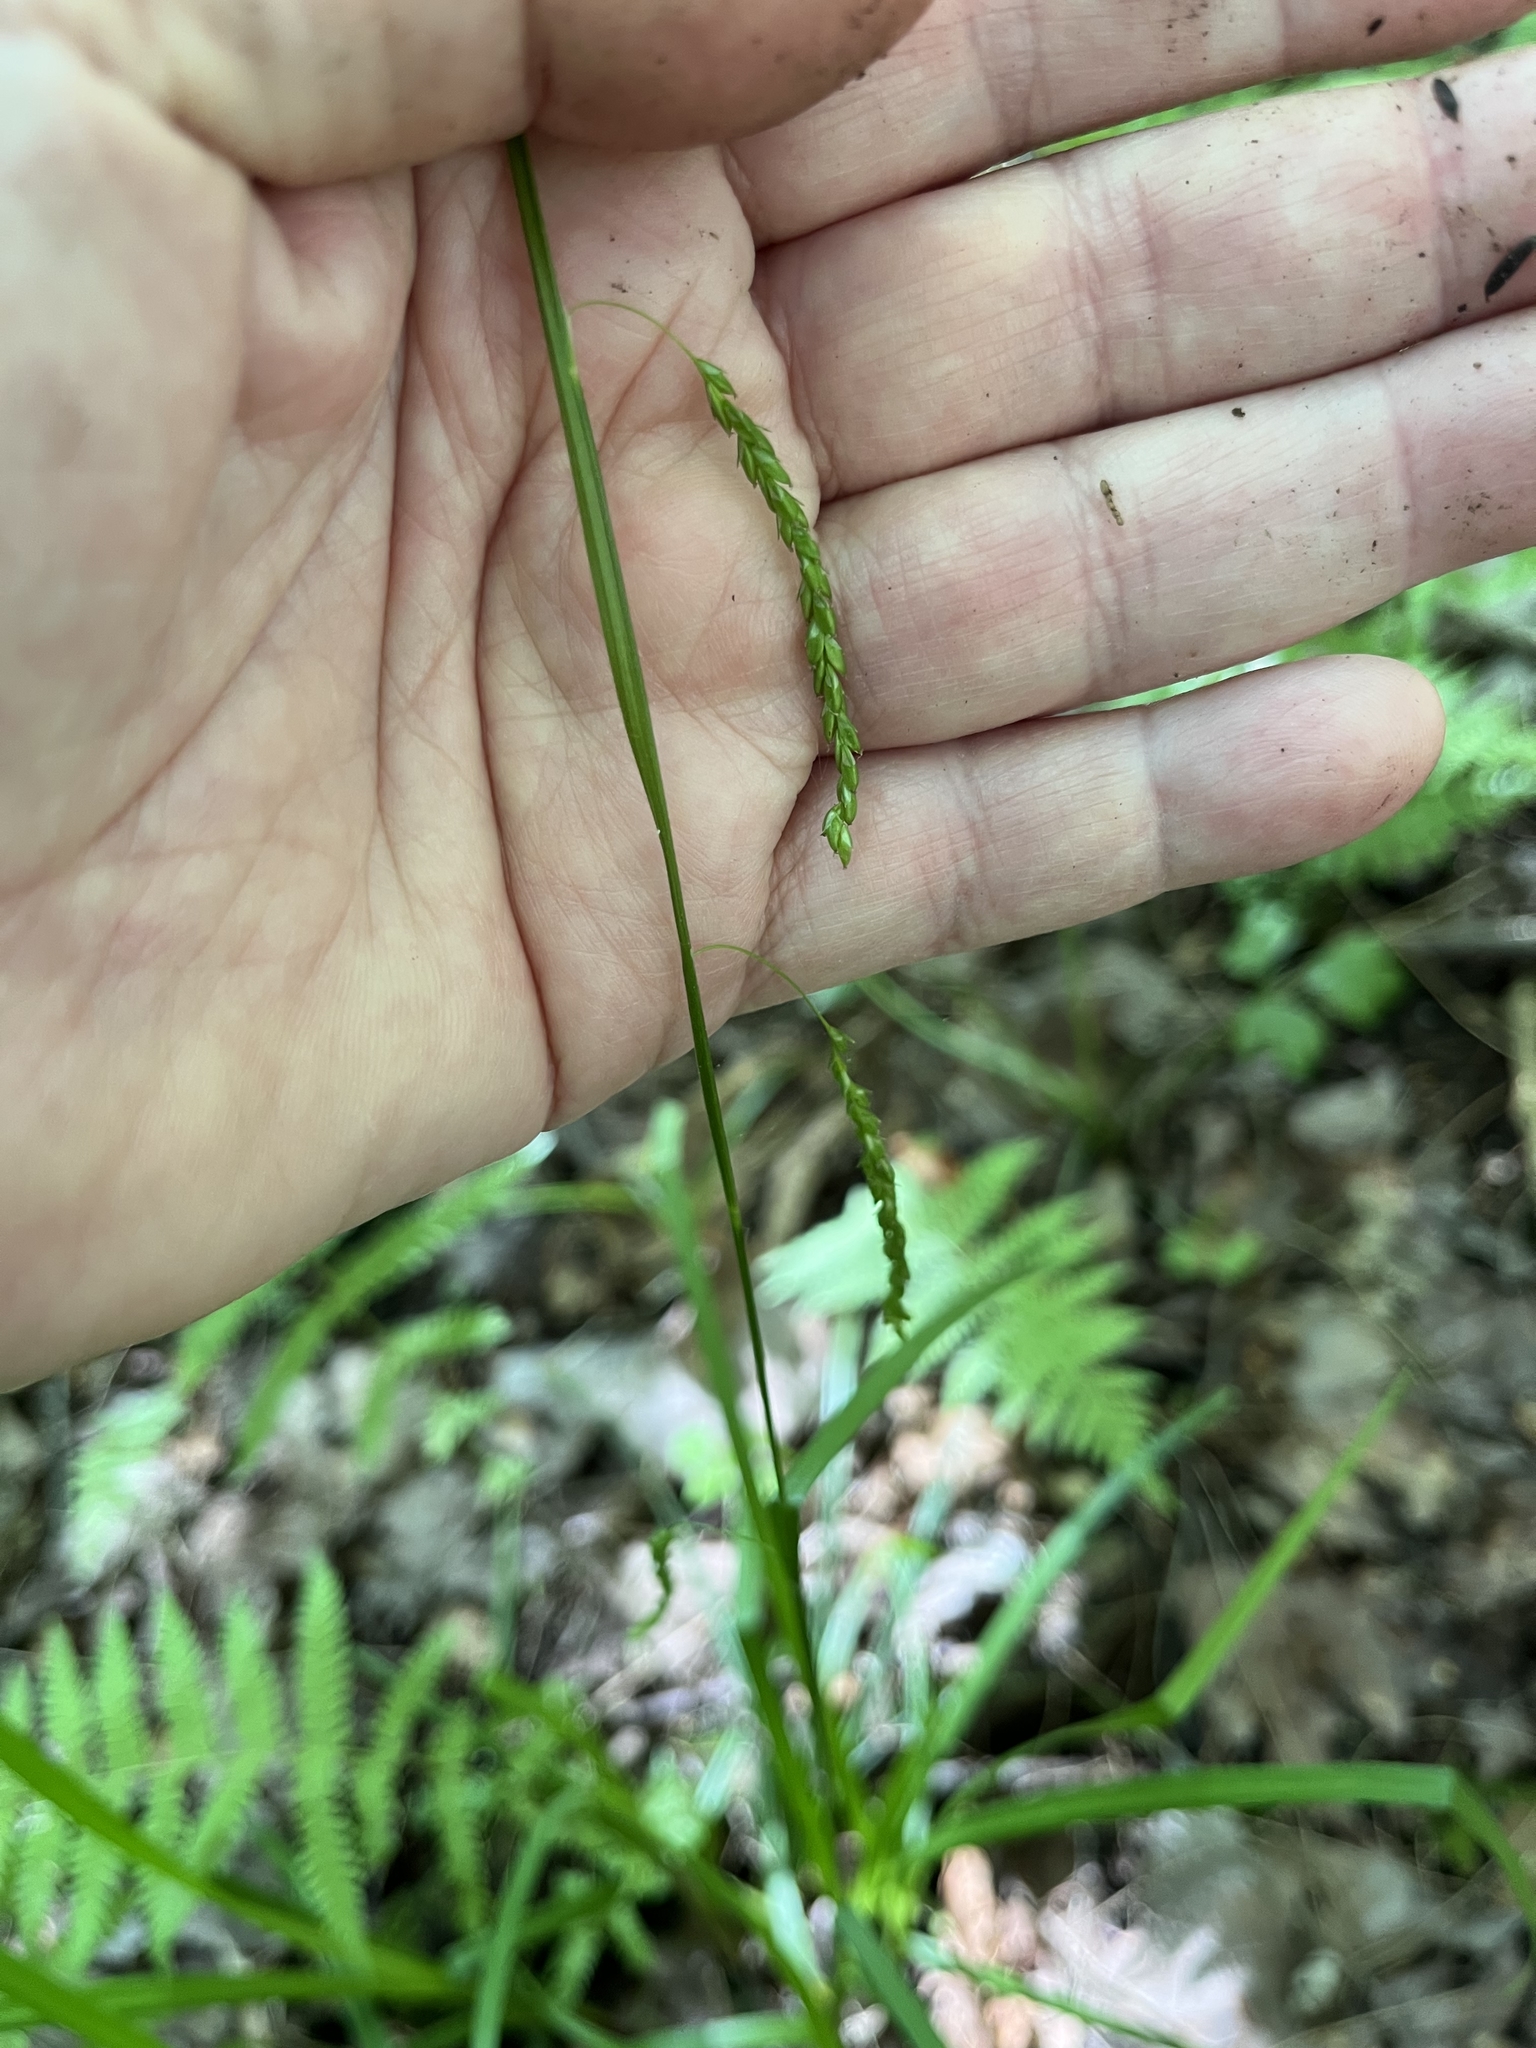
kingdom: Plantae
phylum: Tracheophyta
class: Liliopsida
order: Poales
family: Cyperaceae
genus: Carex
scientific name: Carex gracillima
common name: Graceful sedge
